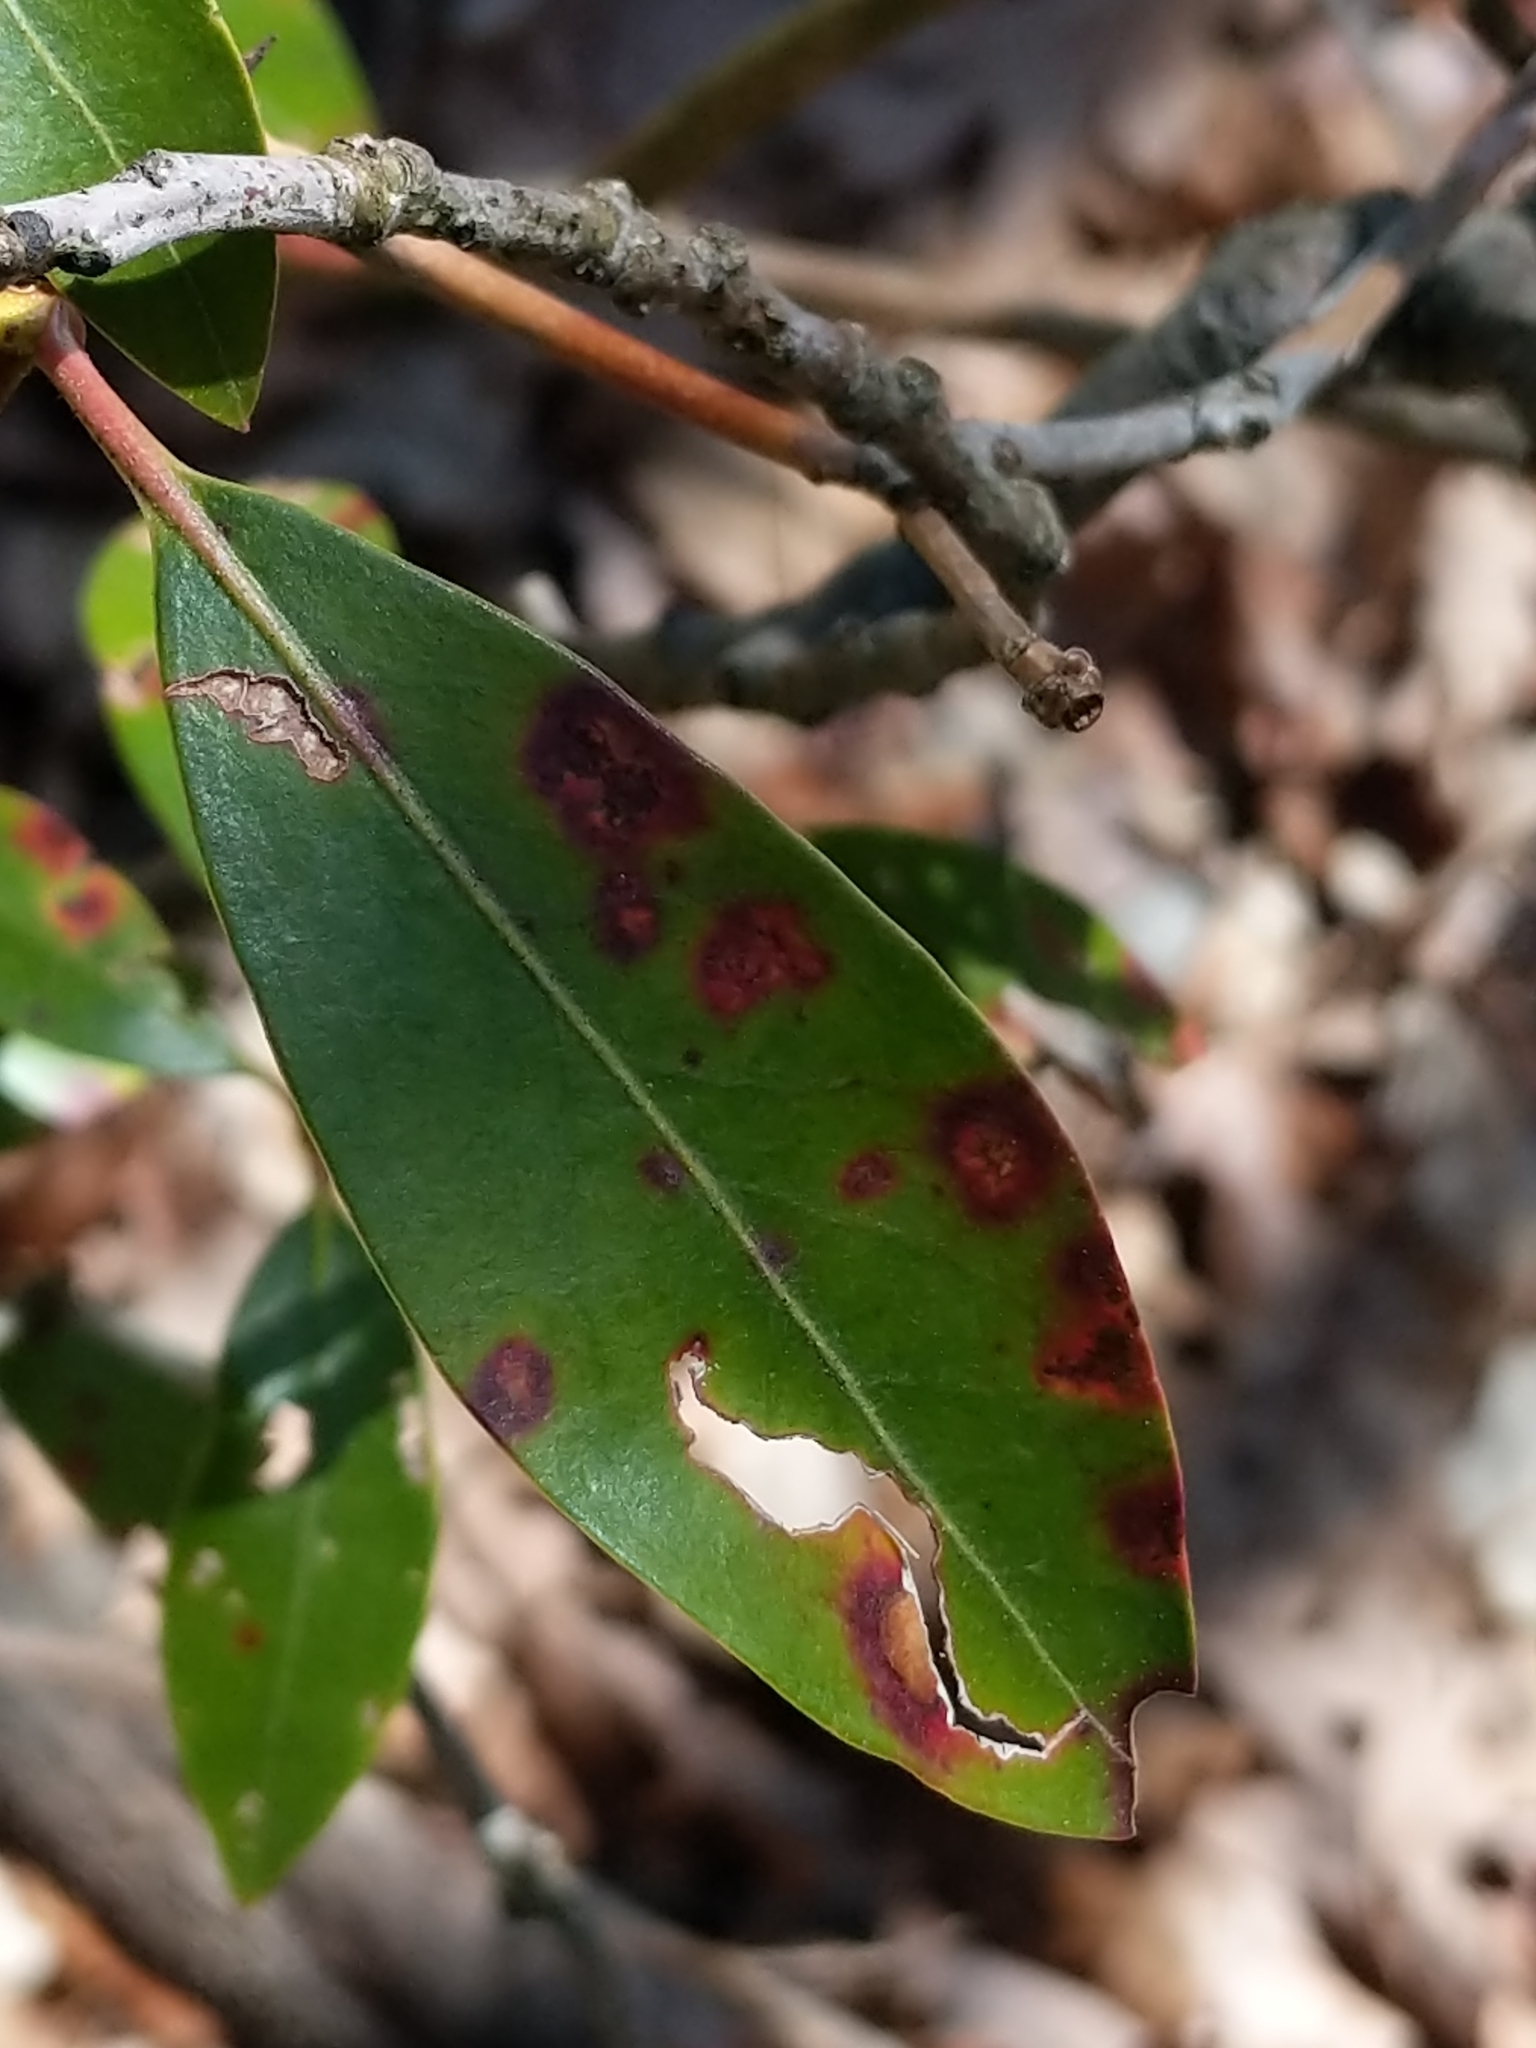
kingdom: Fungi
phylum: Ascomycota
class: Sordariomycetes
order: Diaporthales
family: Diaporthaceae
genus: Diaporthe
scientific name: Diaporthe kalmiae
